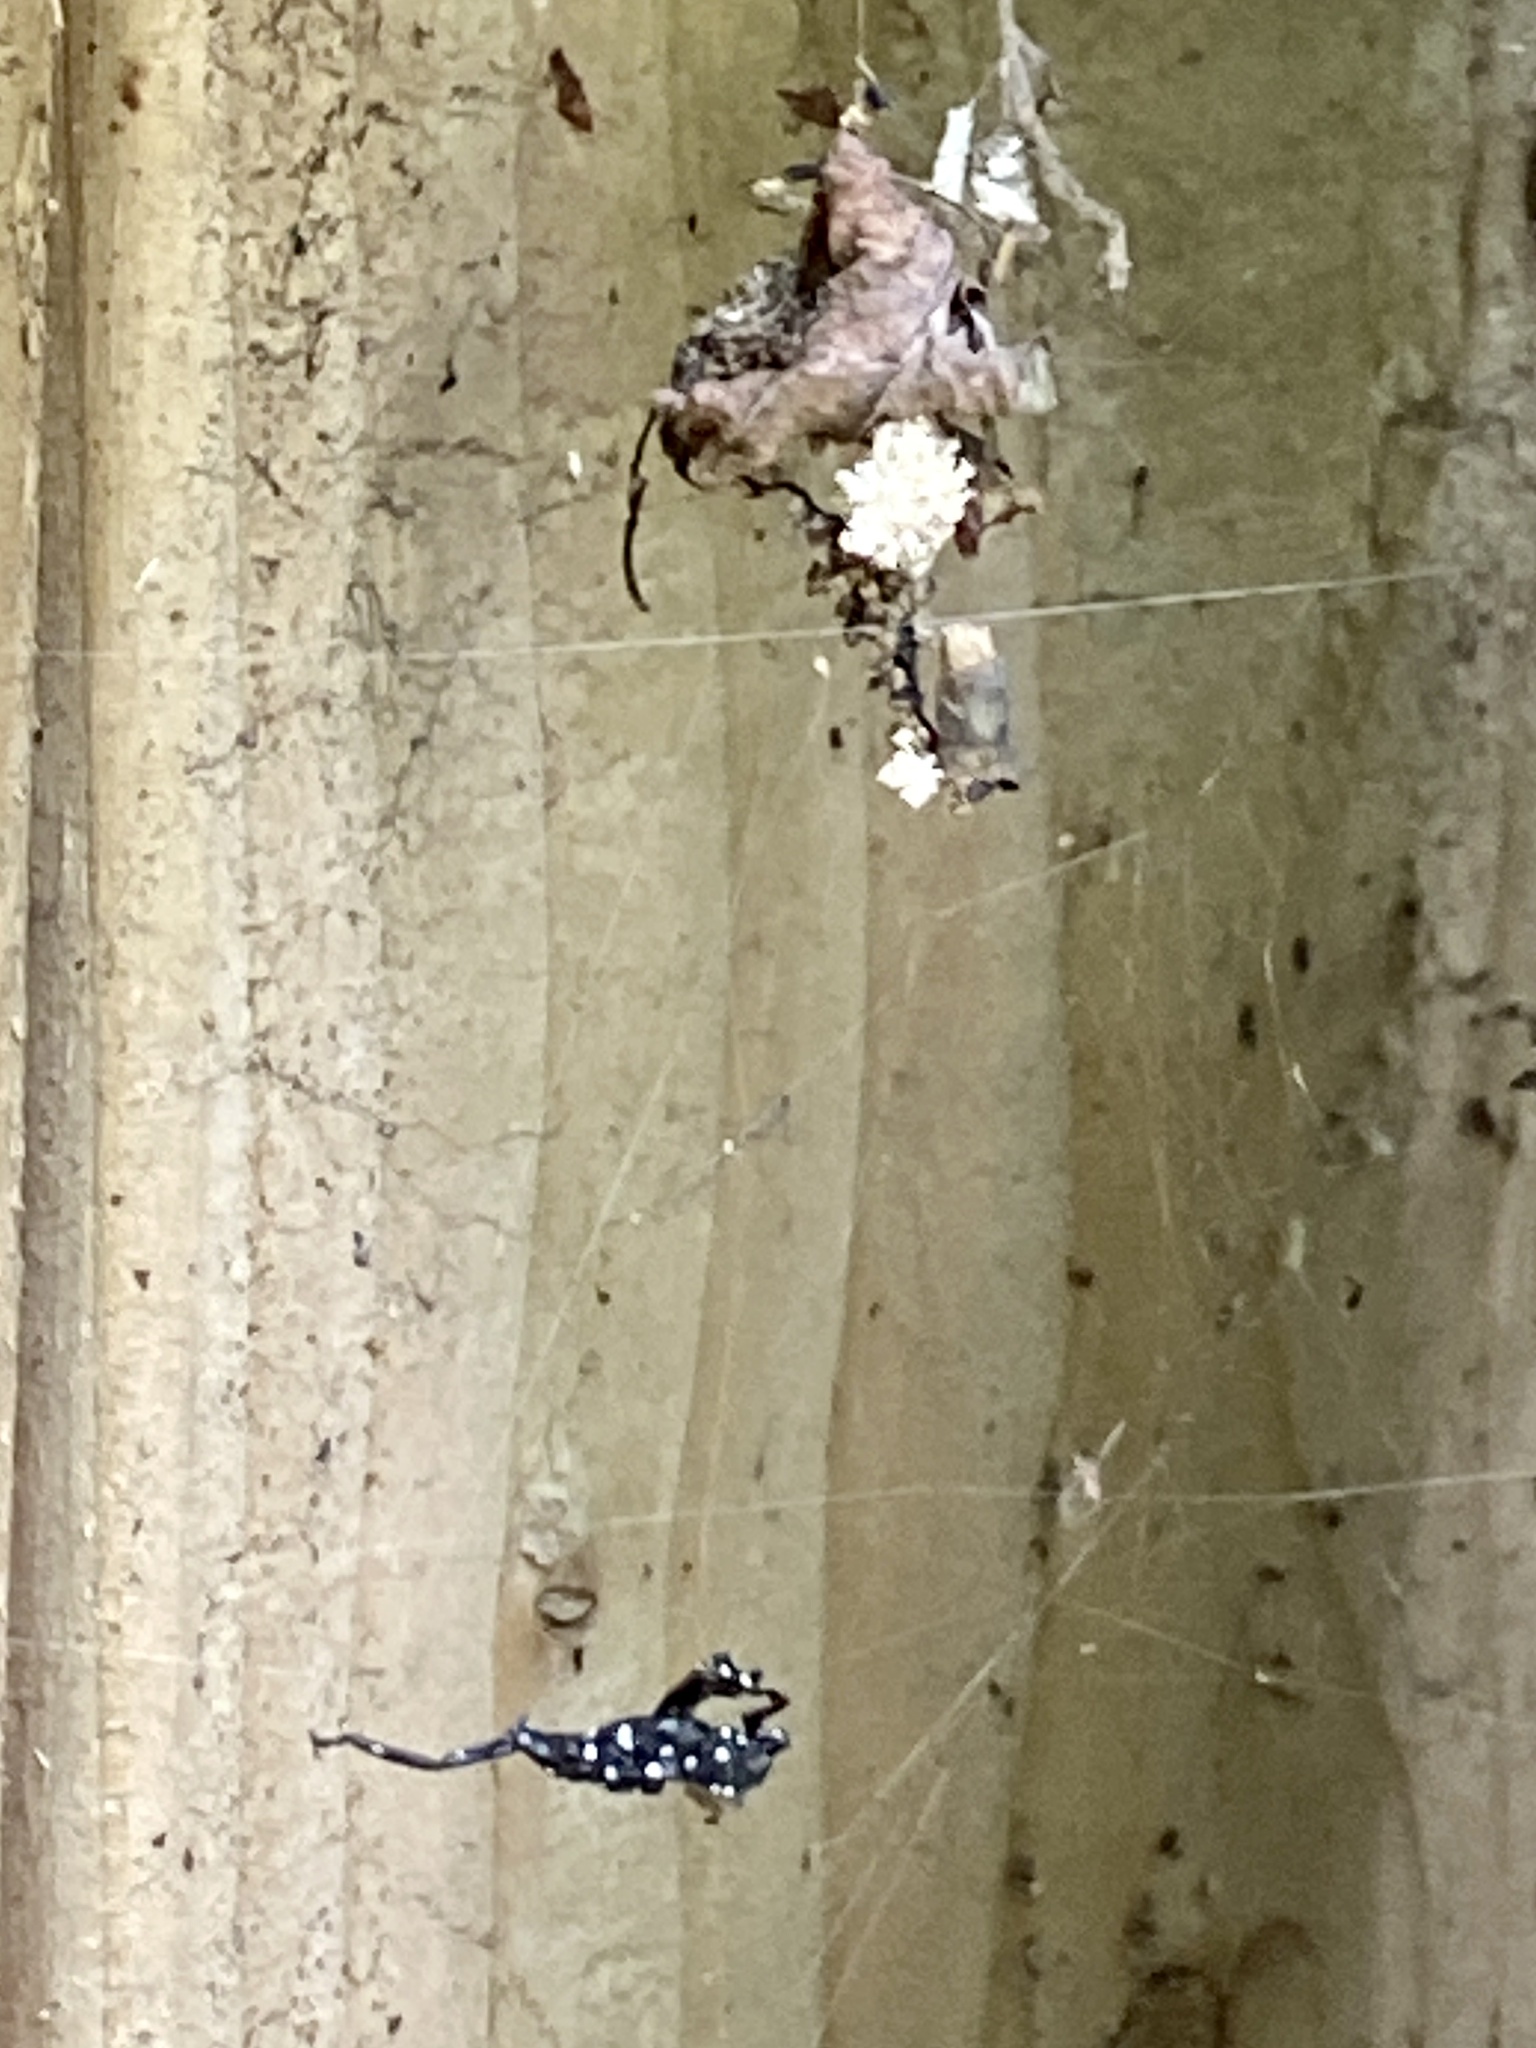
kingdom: Animalia
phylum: Arthropoda
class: Insecta
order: Hemiptera
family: Fulgoridae
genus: Lycorma
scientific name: Lycorma delicatula
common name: Spotted lanternfly
